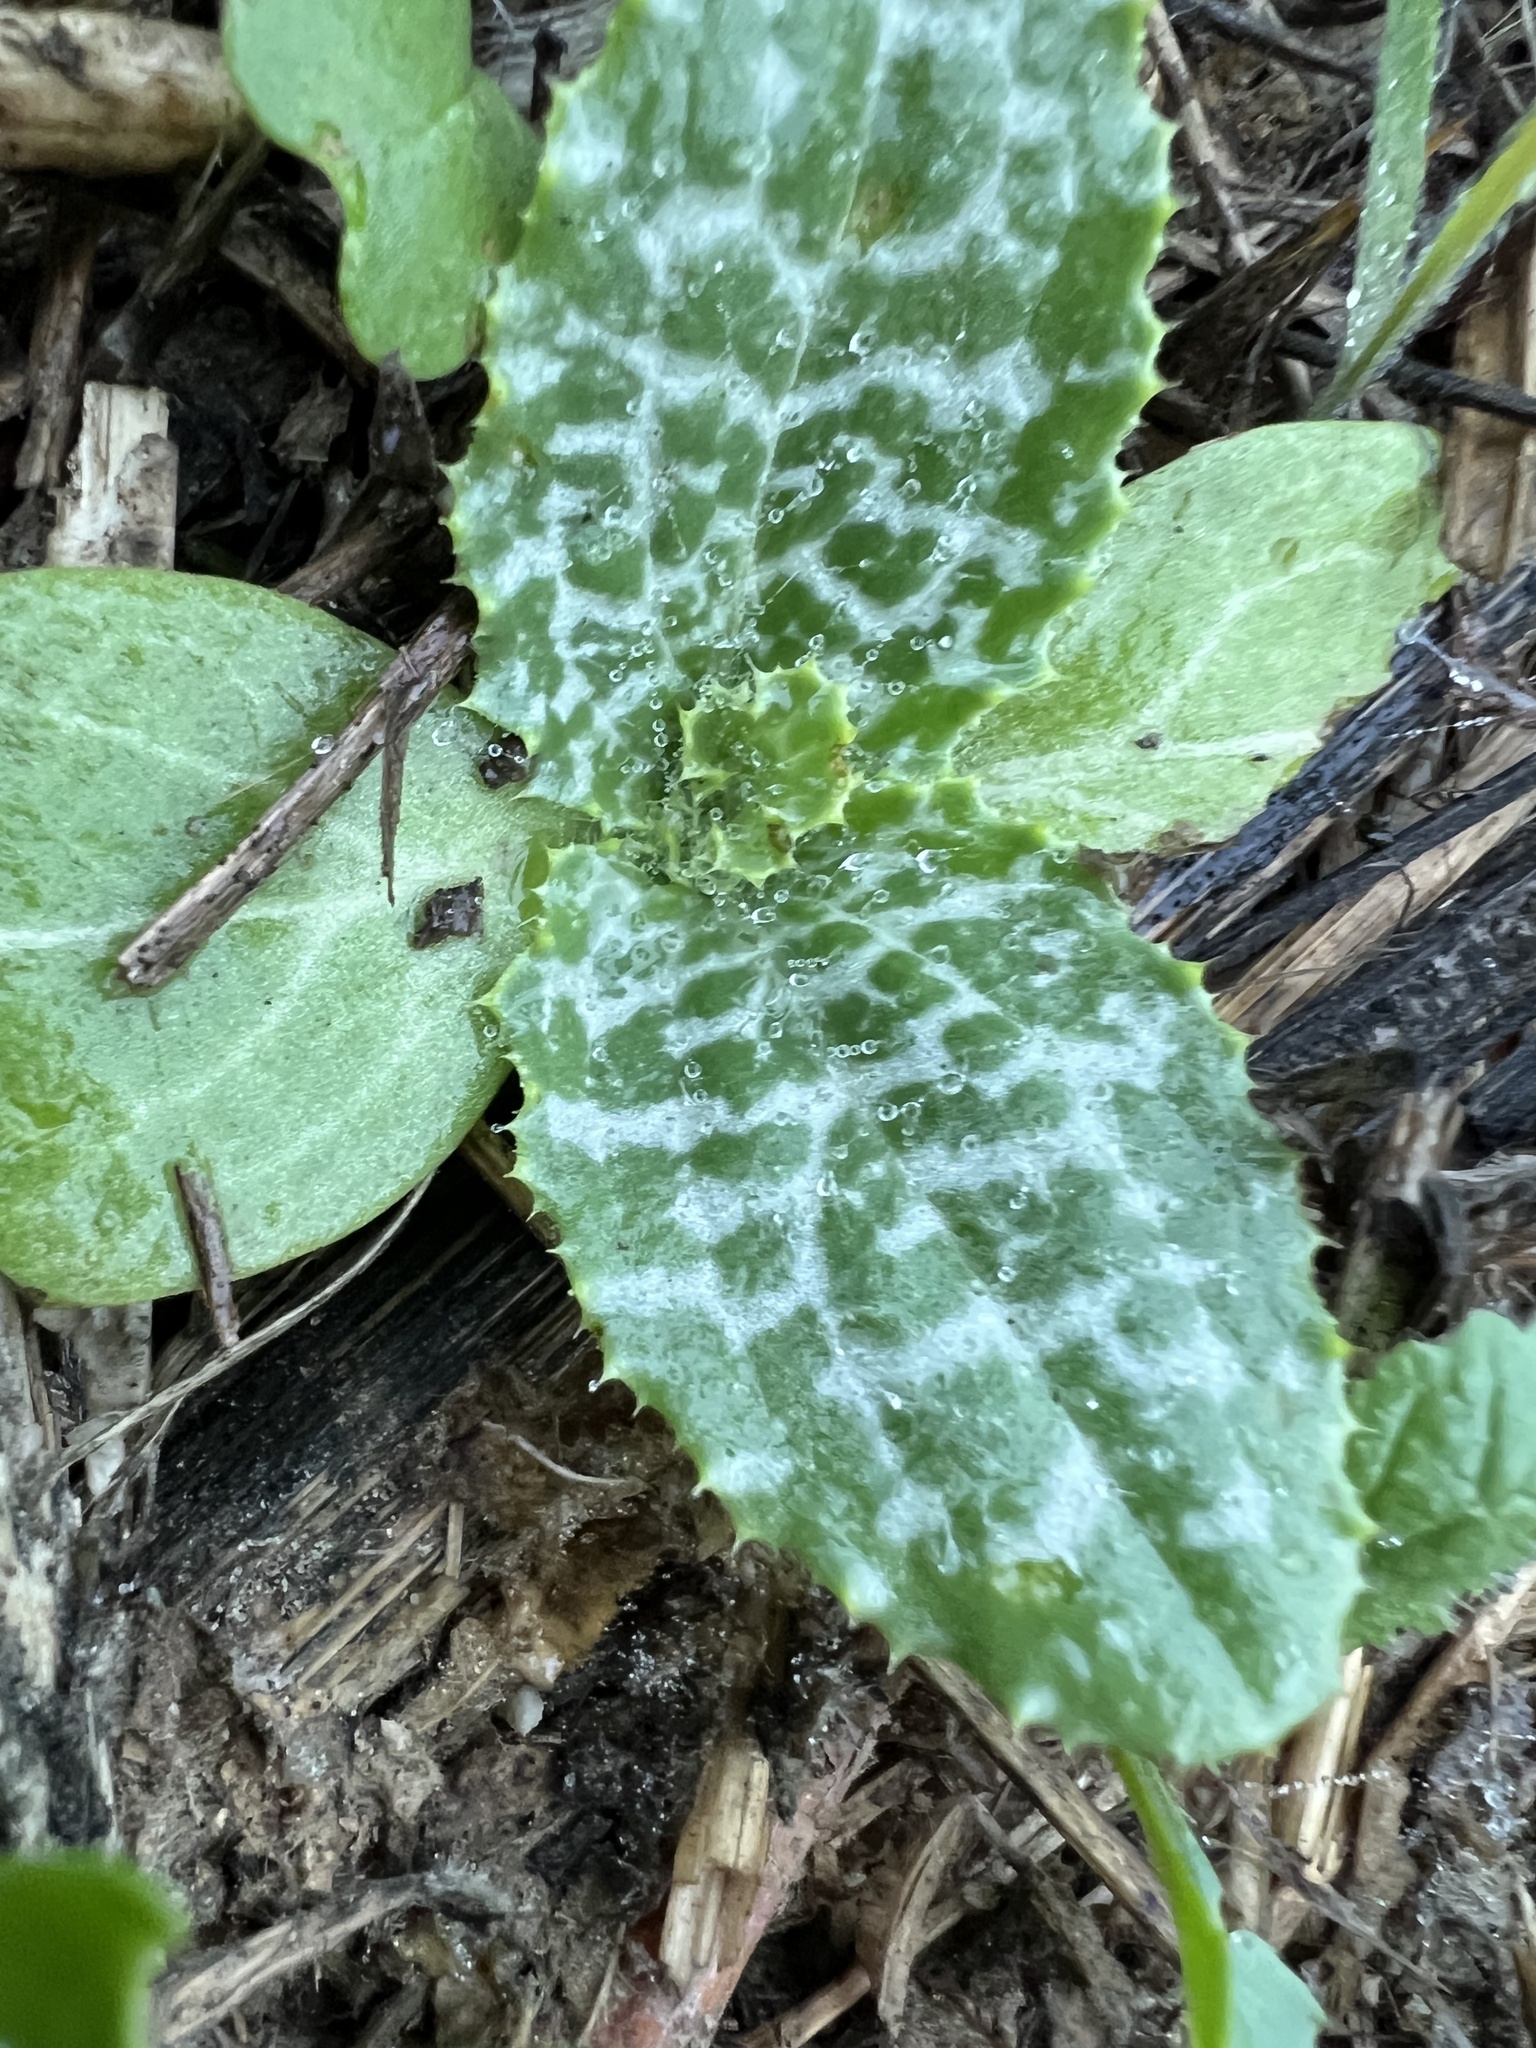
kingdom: Plantae
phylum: Tracheophyta
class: Magnoliopsida
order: Asterales
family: Asteraceae
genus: Silybum
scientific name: Silybum marianum
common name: Milk thistle
